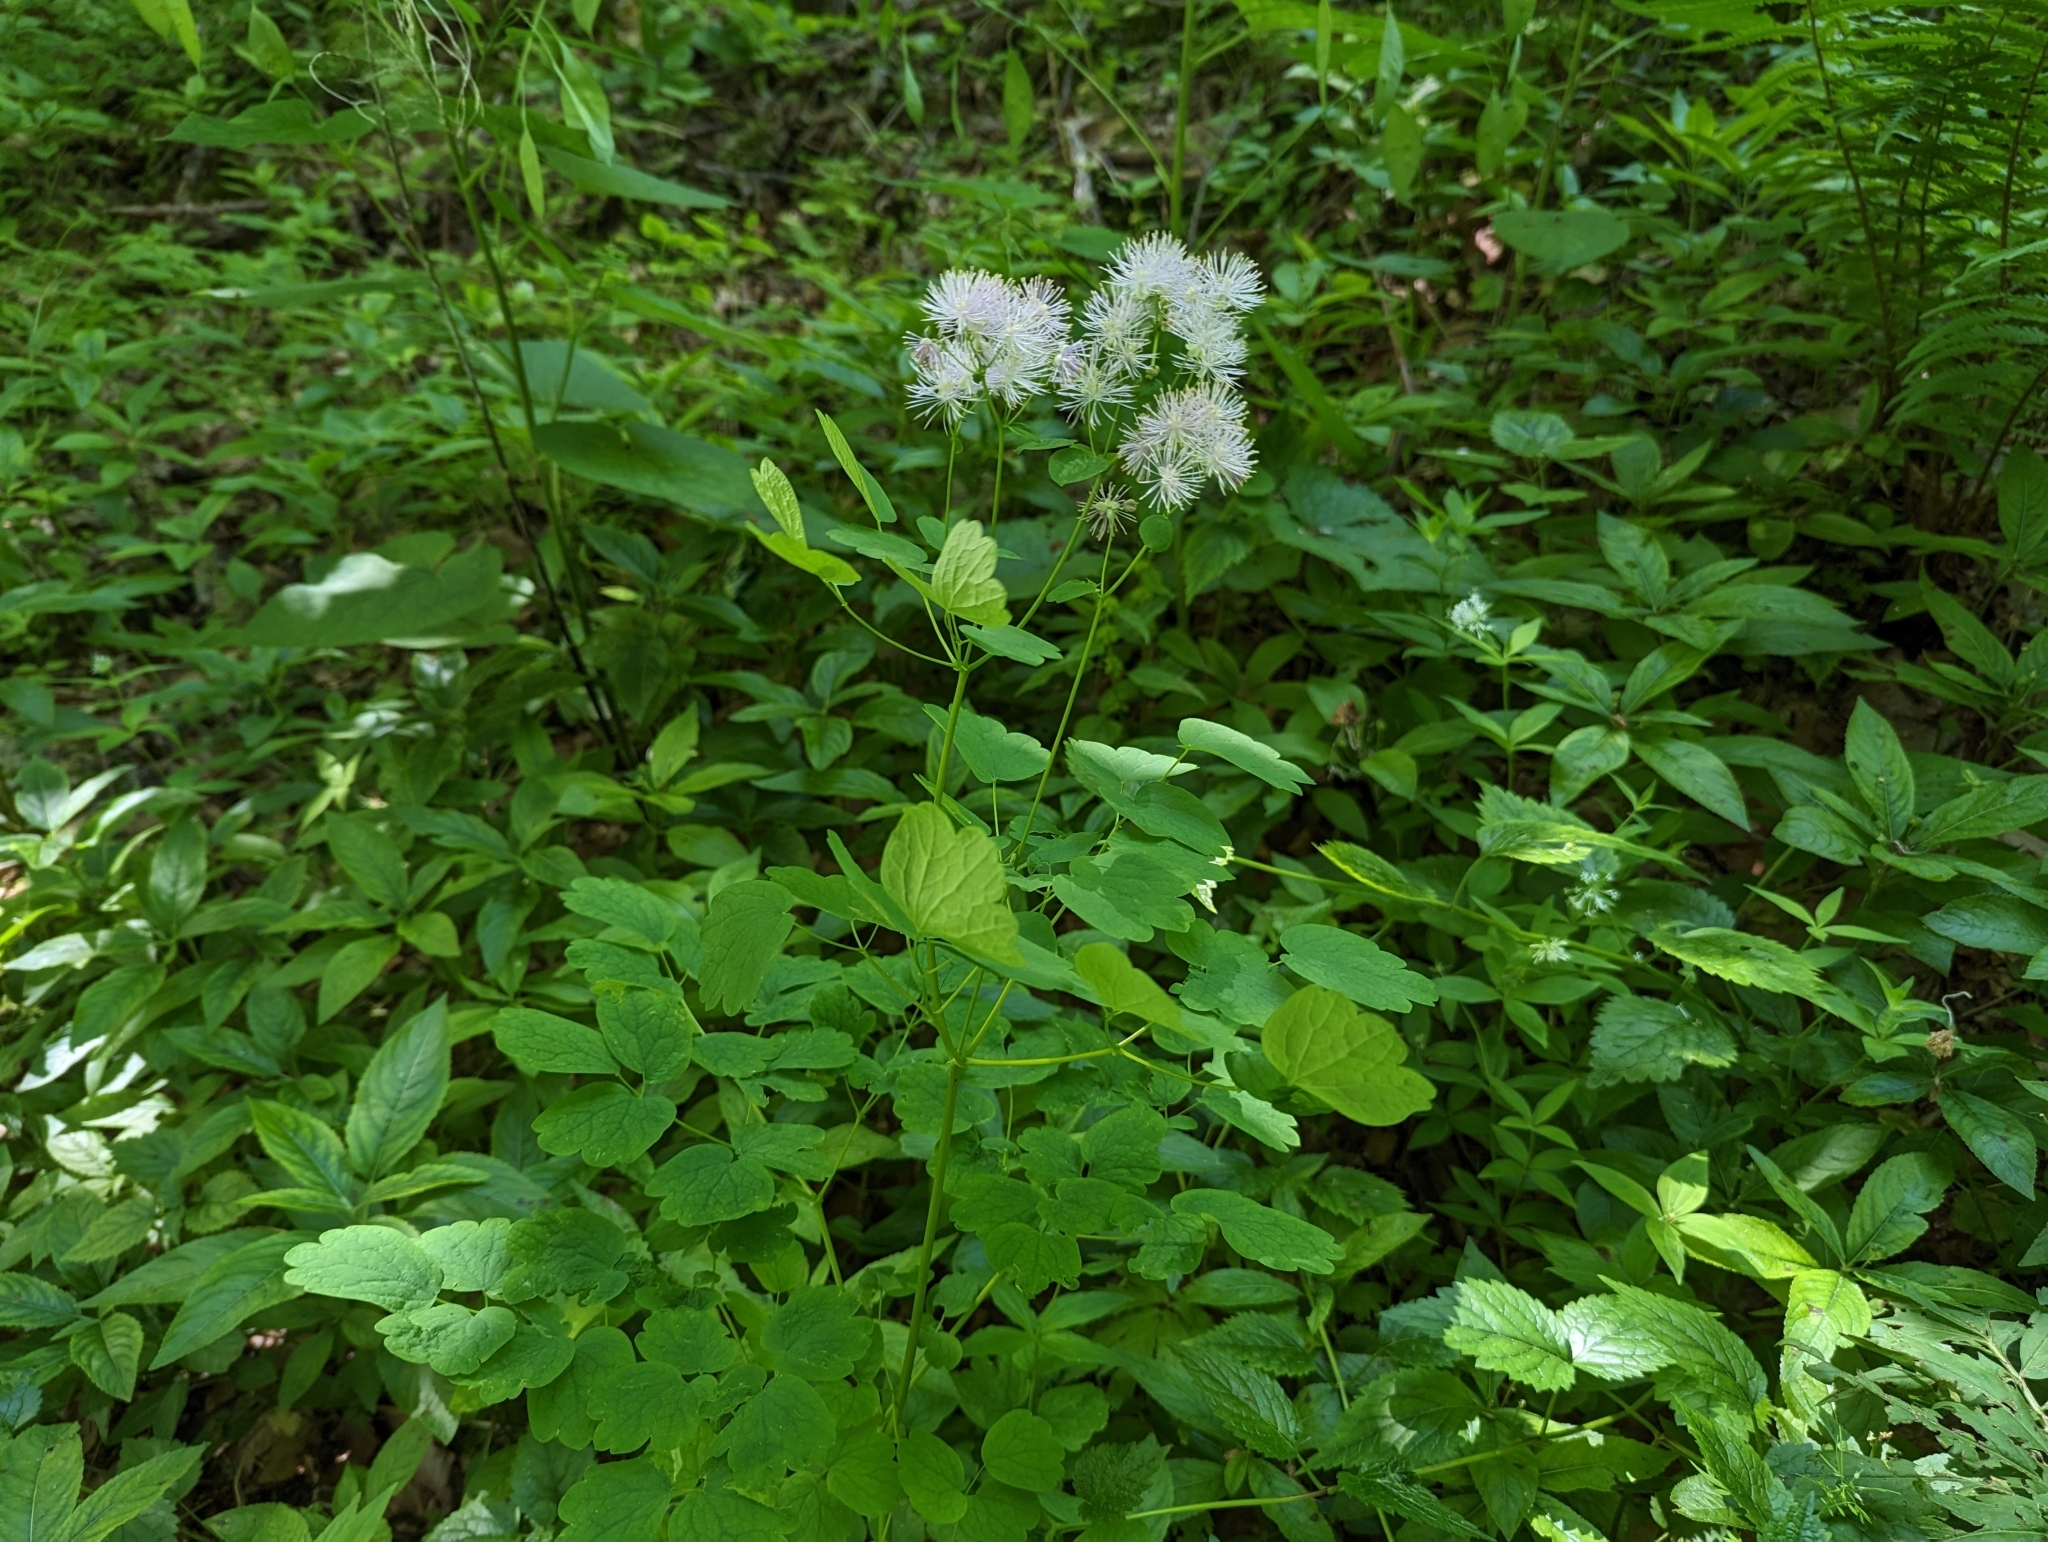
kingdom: Plantae
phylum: Tracheophyta
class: Magnoliopsida
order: Ranunculales
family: Ranunculaceae
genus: Thalictrum
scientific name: Thalictrum aquilegiifolium
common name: French meadow-rue
